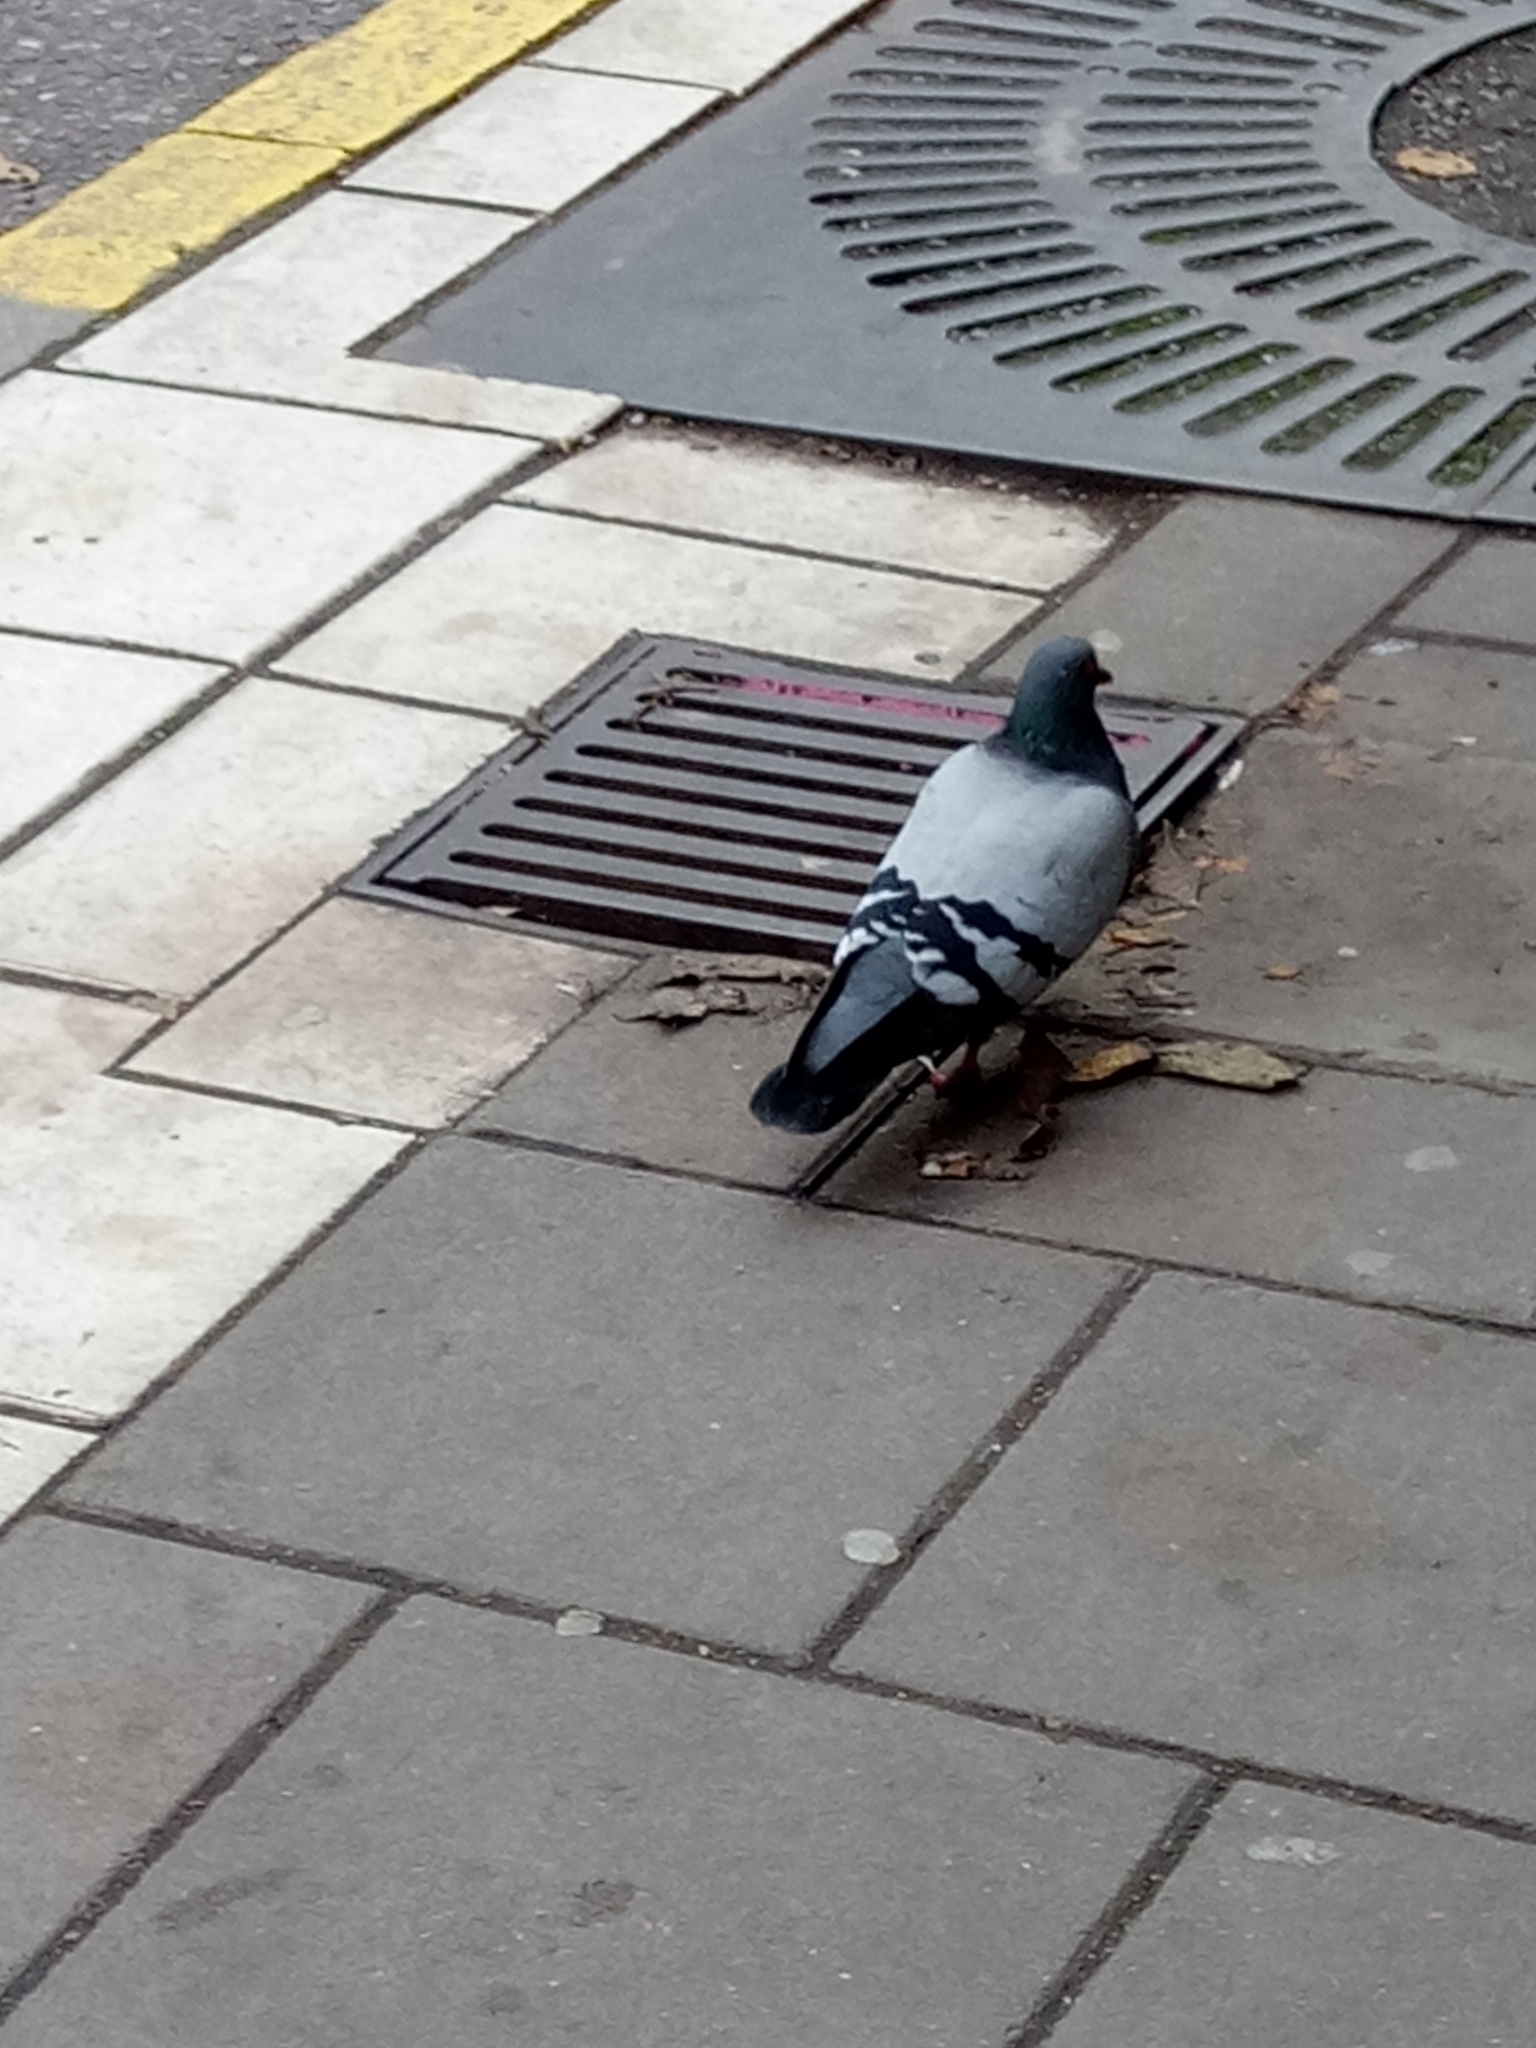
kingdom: Animalia
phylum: Chordata
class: Aves
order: Columbiformes
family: Columbidae
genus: Columba
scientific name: Columba livia
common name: Rock pigeon
